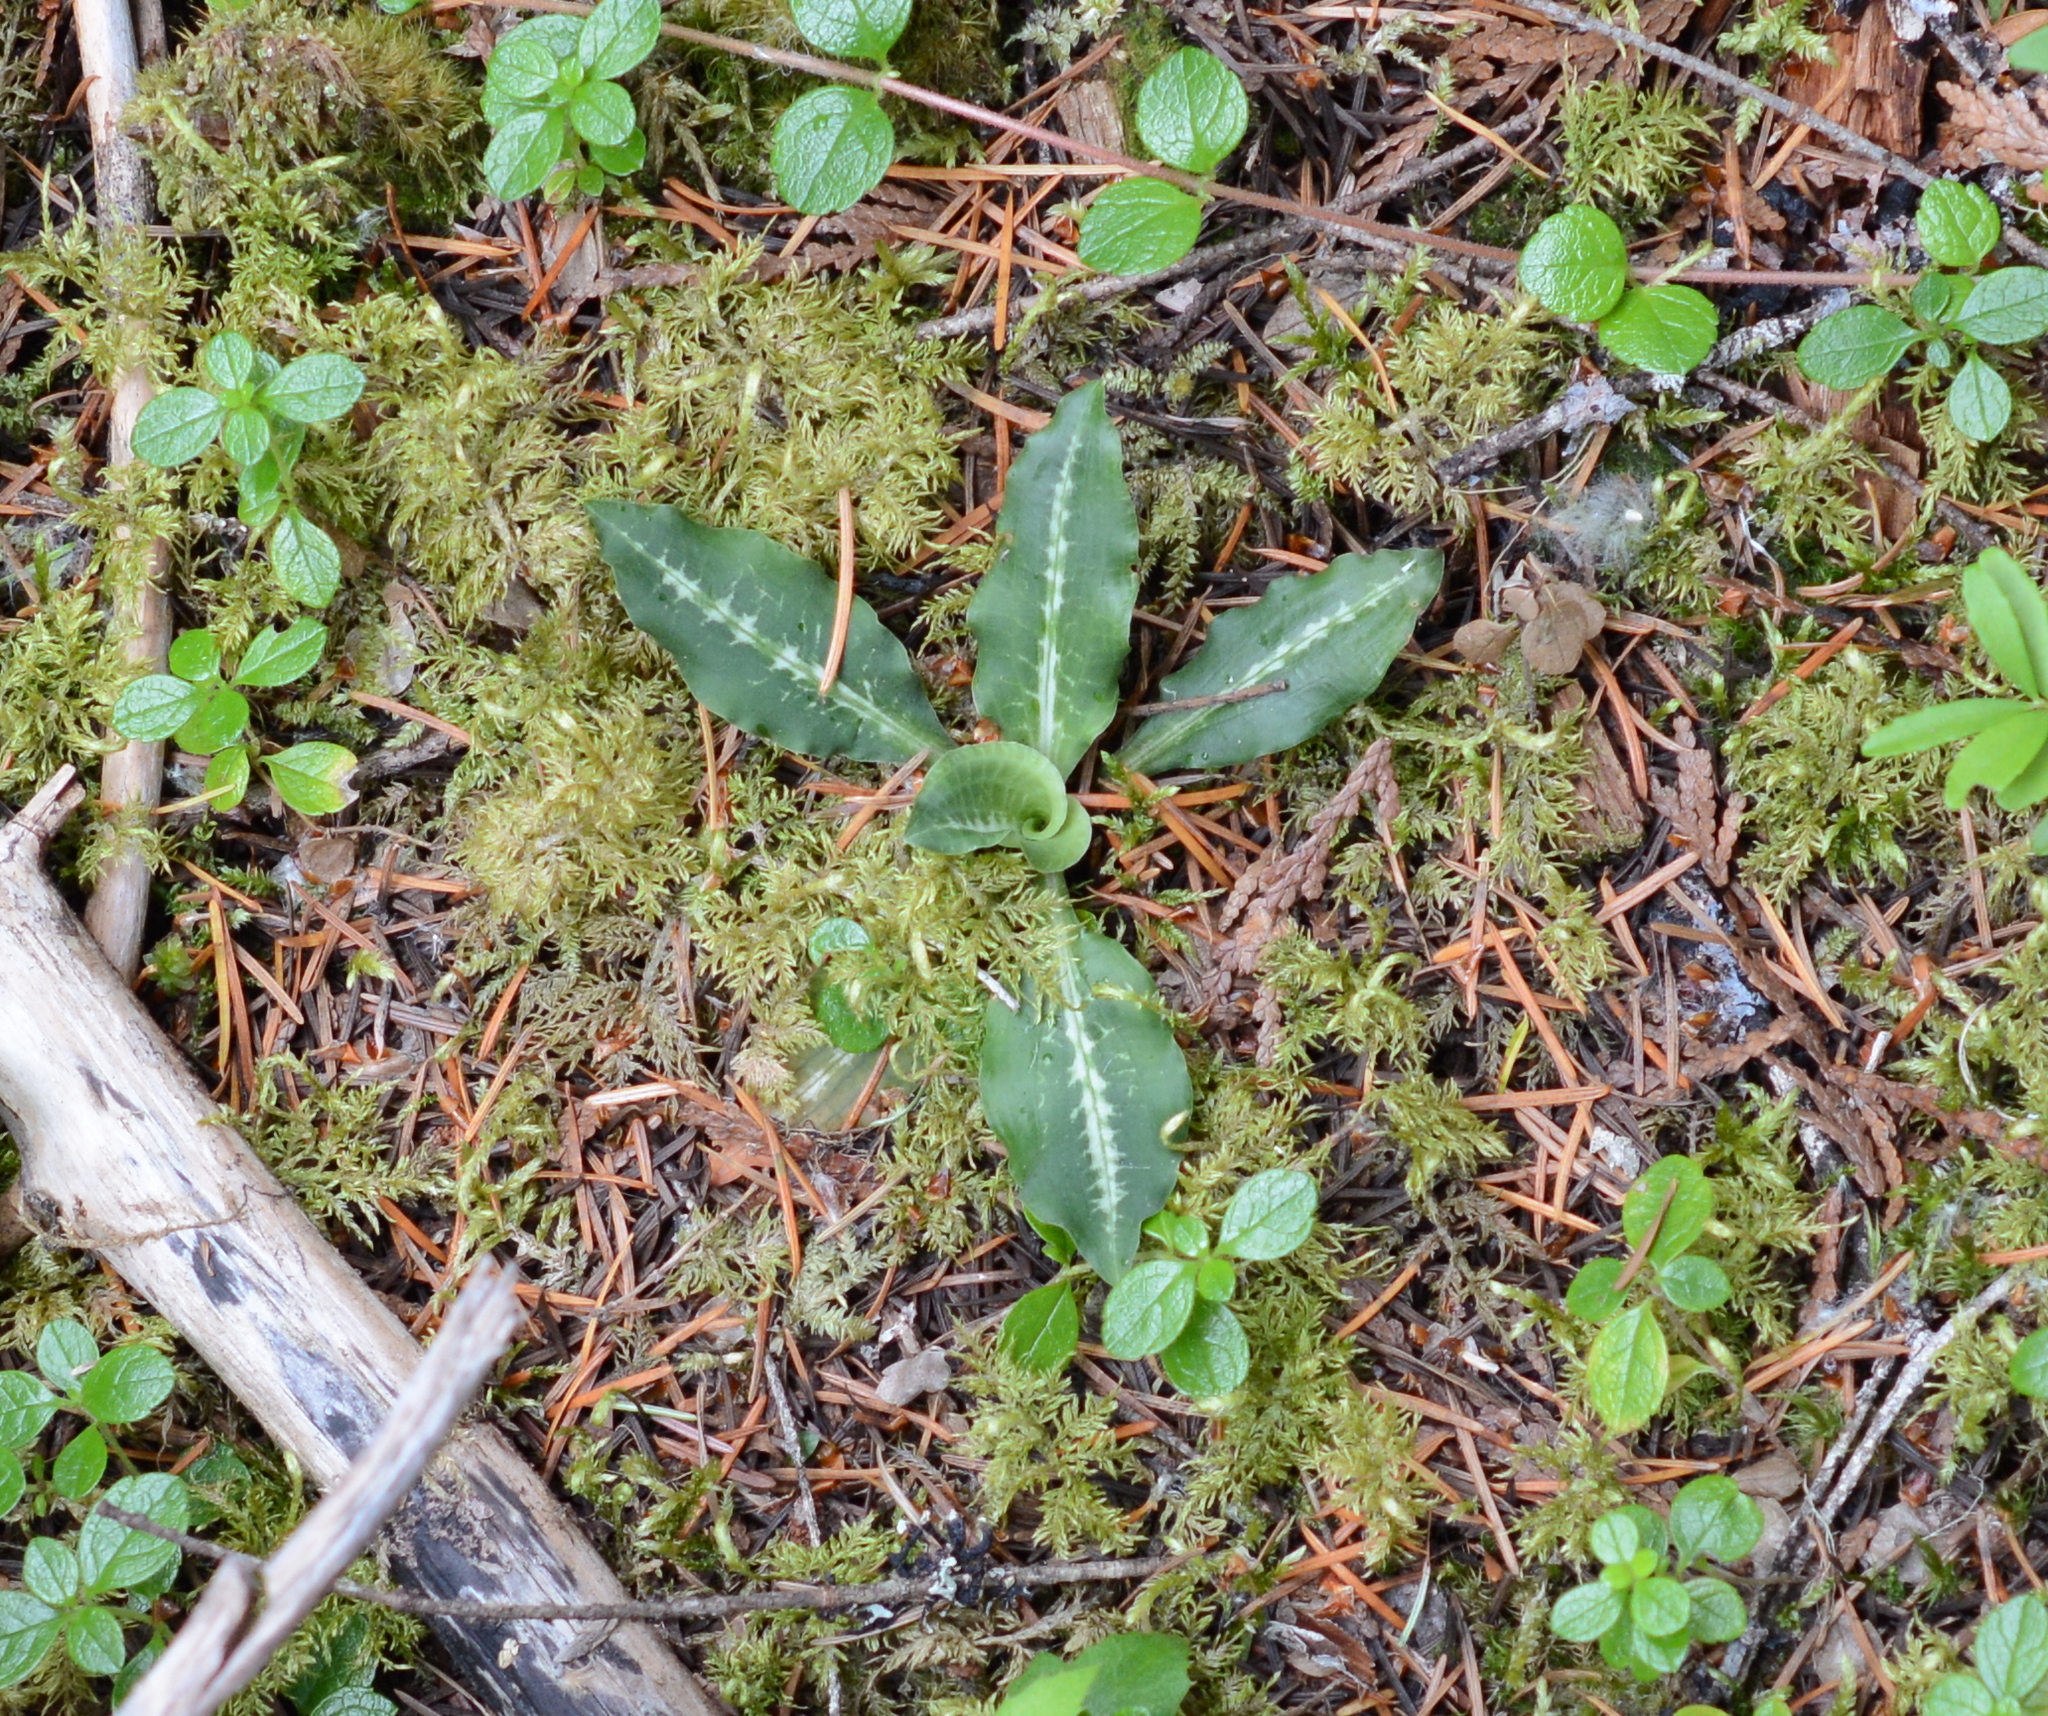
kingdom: Plantae
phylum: Tracheophyta
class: Liliopsida
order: Asparagales
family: Orchidaceae
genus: Goodyera
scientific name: Goodyera oblongifolia
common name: Giant rattlesnake-plantain
